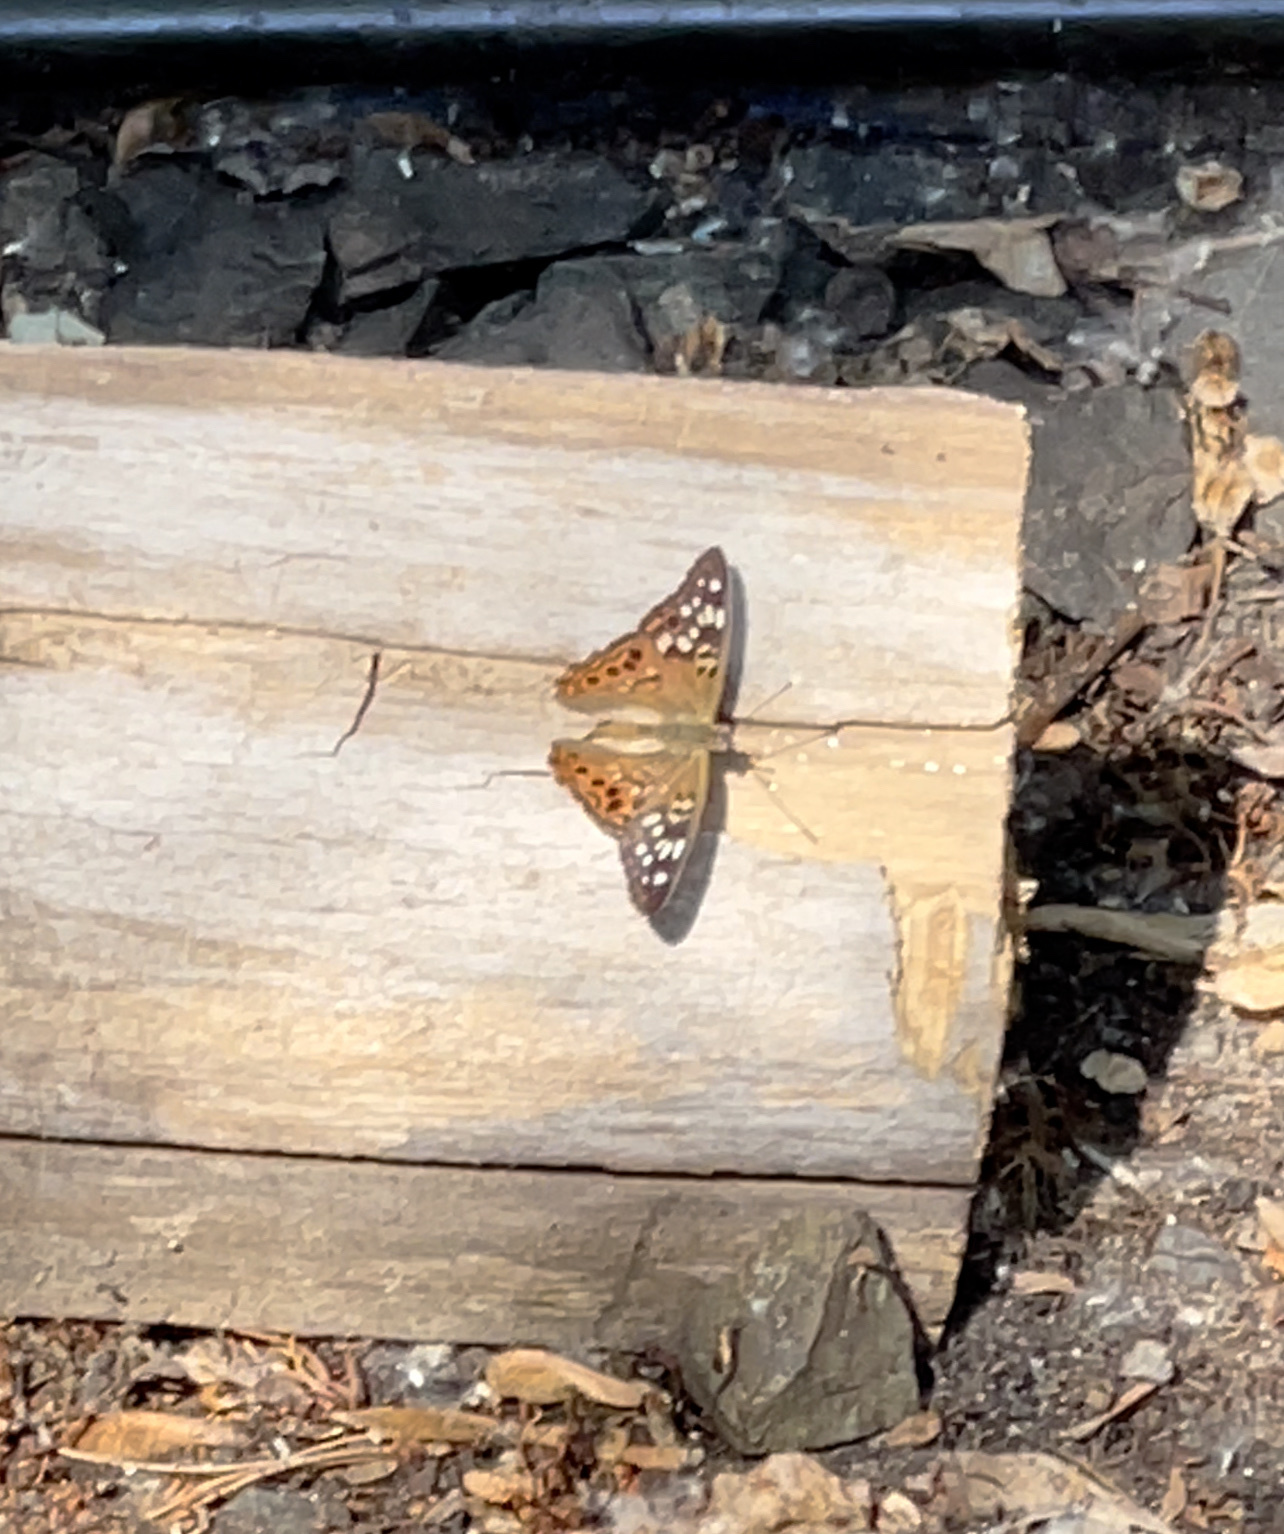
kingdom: Animalia
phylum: Arthropoda
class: Insecta
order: Lepidoptera
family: Nymphalidae
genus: Asterocampa
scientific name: Asterocampa celtis
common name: Hackberry emperor
